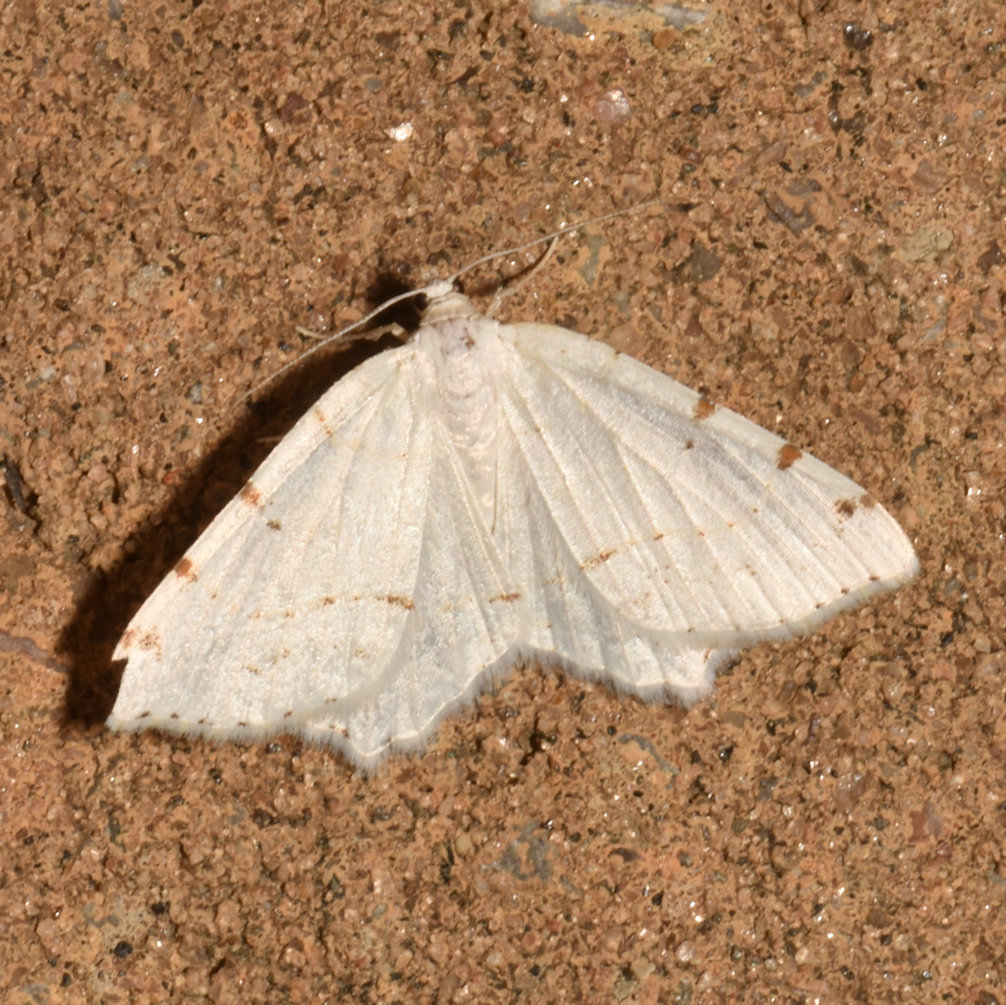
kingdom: Animalia
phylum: Arthropoda
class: Insecta
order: Lepidoptera
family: Geometridae
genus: Macaria
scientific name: Macaria pustularia
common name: Lesser maple spanworm moth
